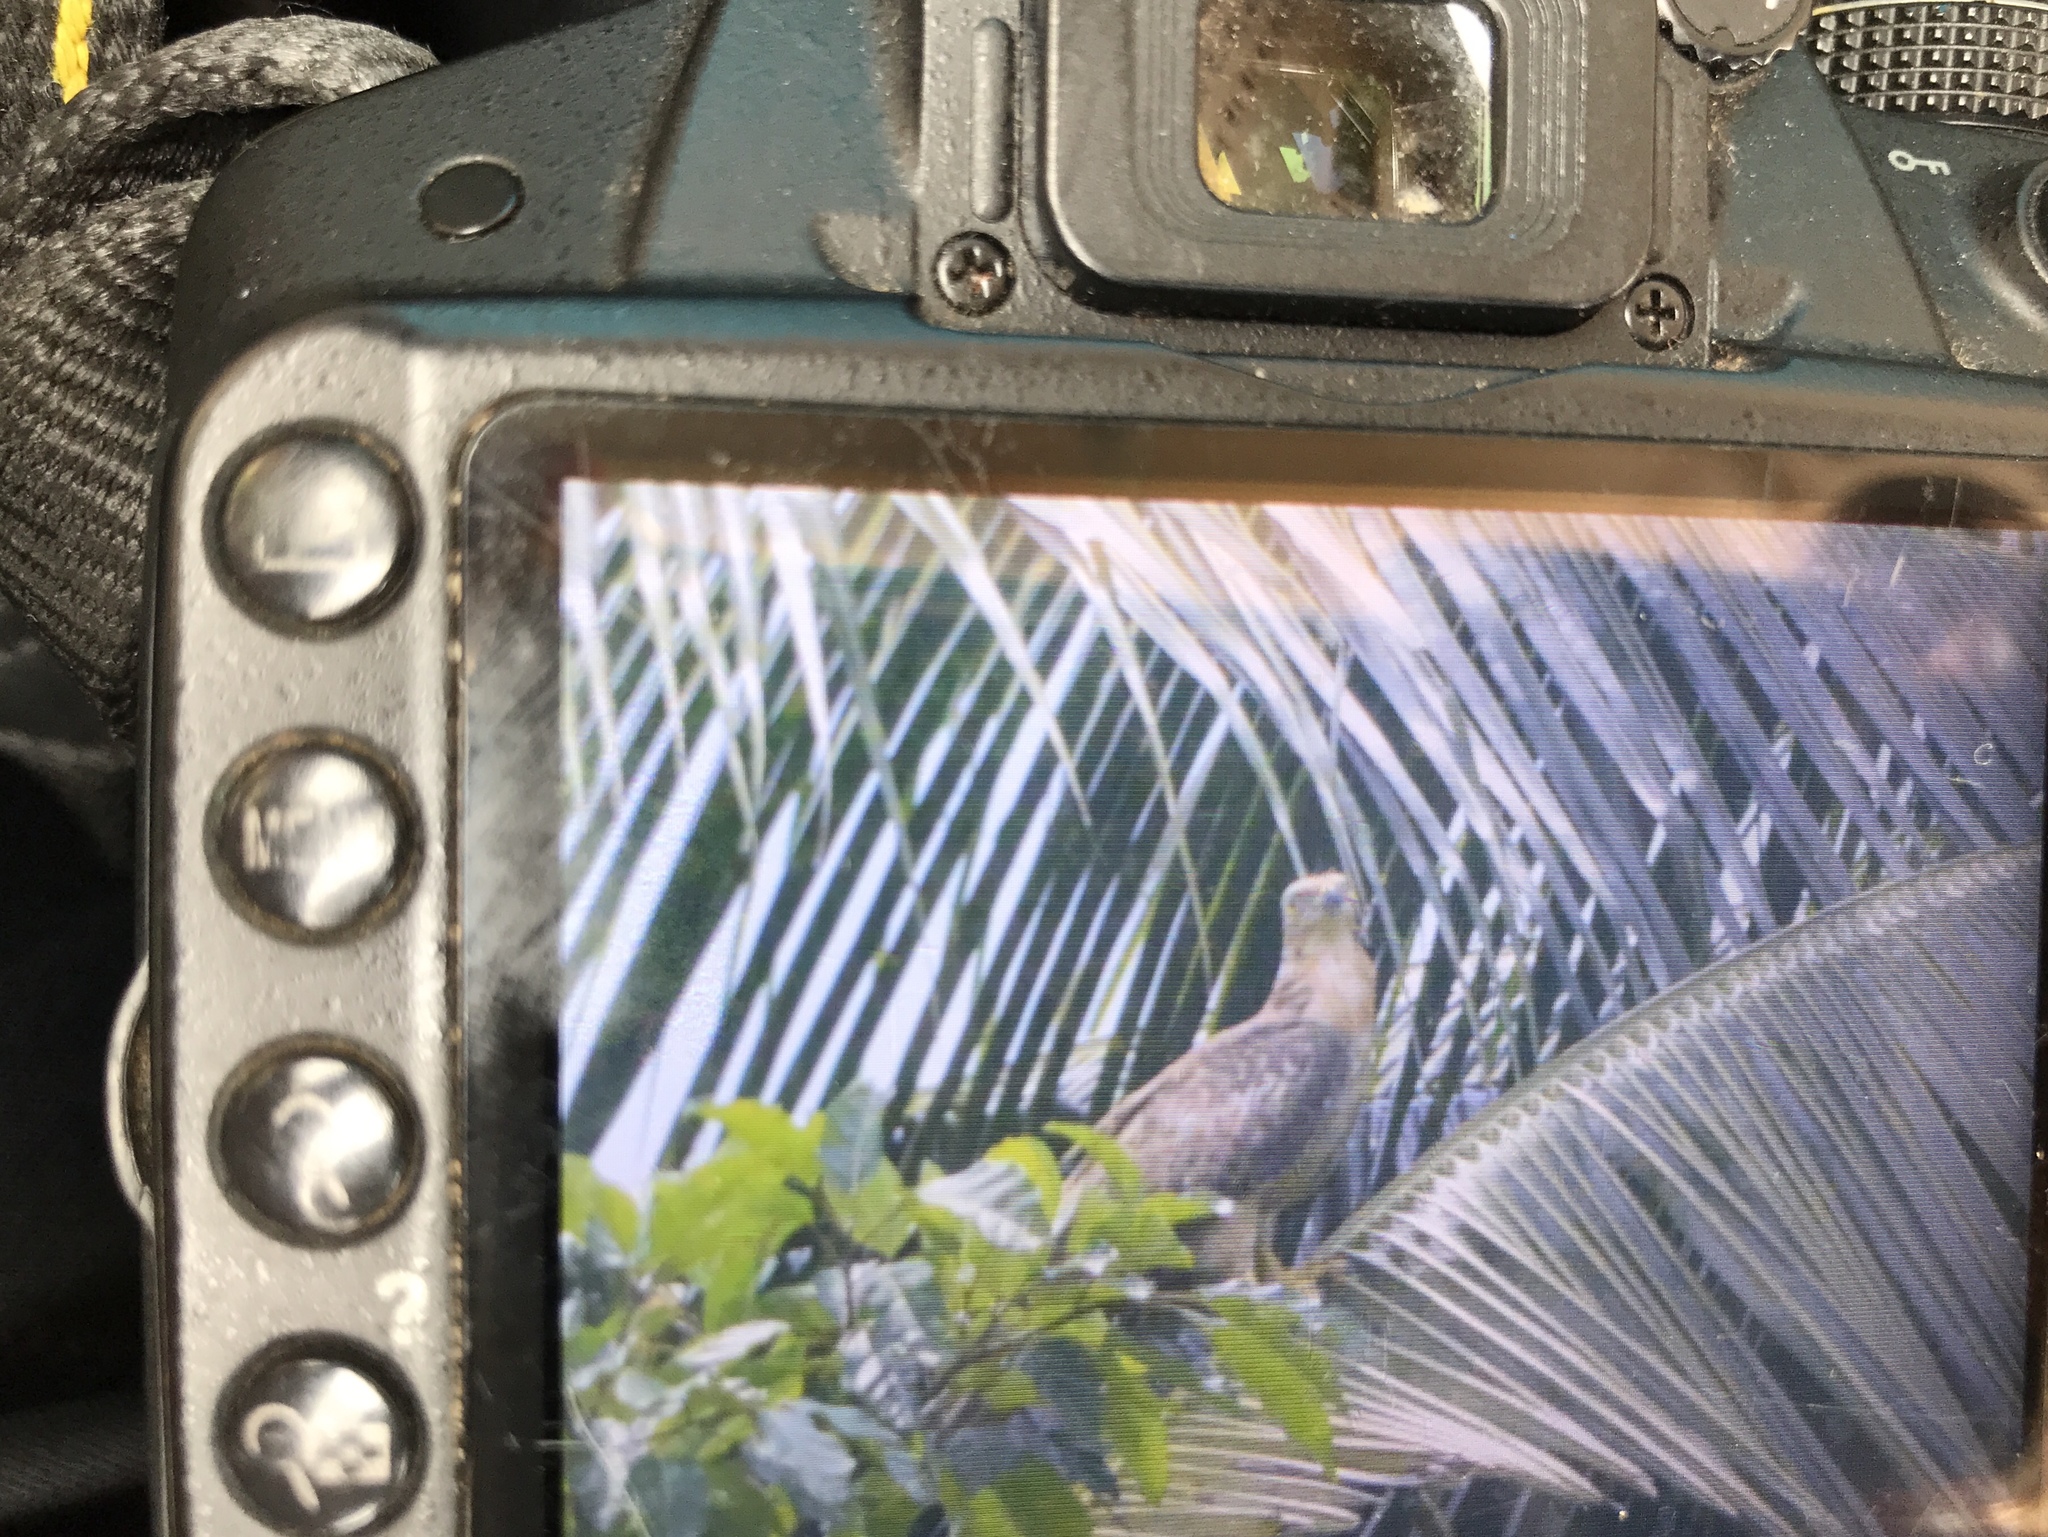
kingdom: Animalia
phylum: Chordata
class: Aves
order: Accipitriformes
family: Accipitridae
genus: Pernis
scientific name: Pernis ptilorhynchus
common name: Crested honey buzzard
